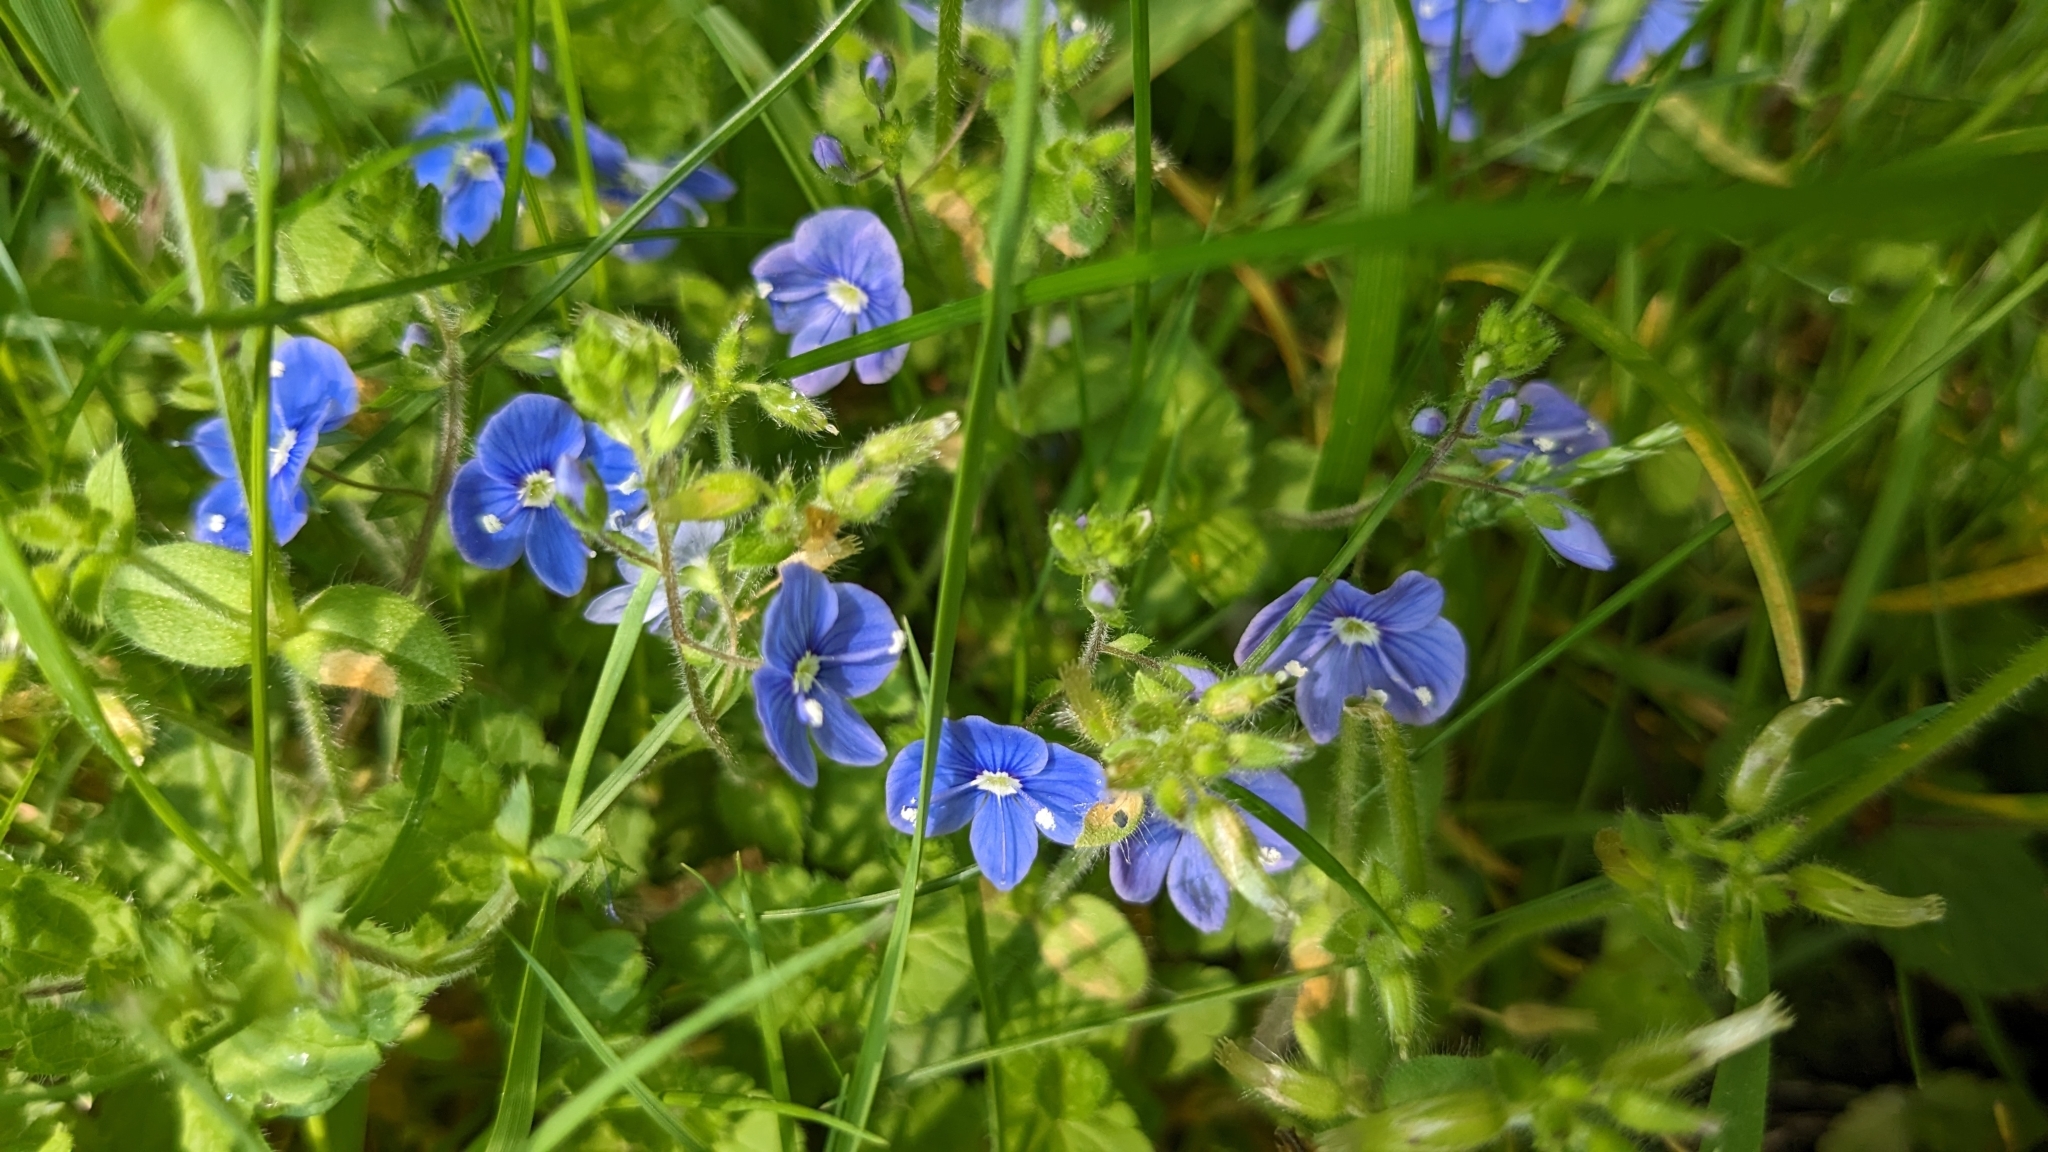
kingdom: Plantae
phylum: Tracheophyta
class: Magnoliopsida
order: Lamiales
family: Plantaginaceae
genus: Veronica
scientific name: Veronica chamaedrys
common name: Germander speedwell
